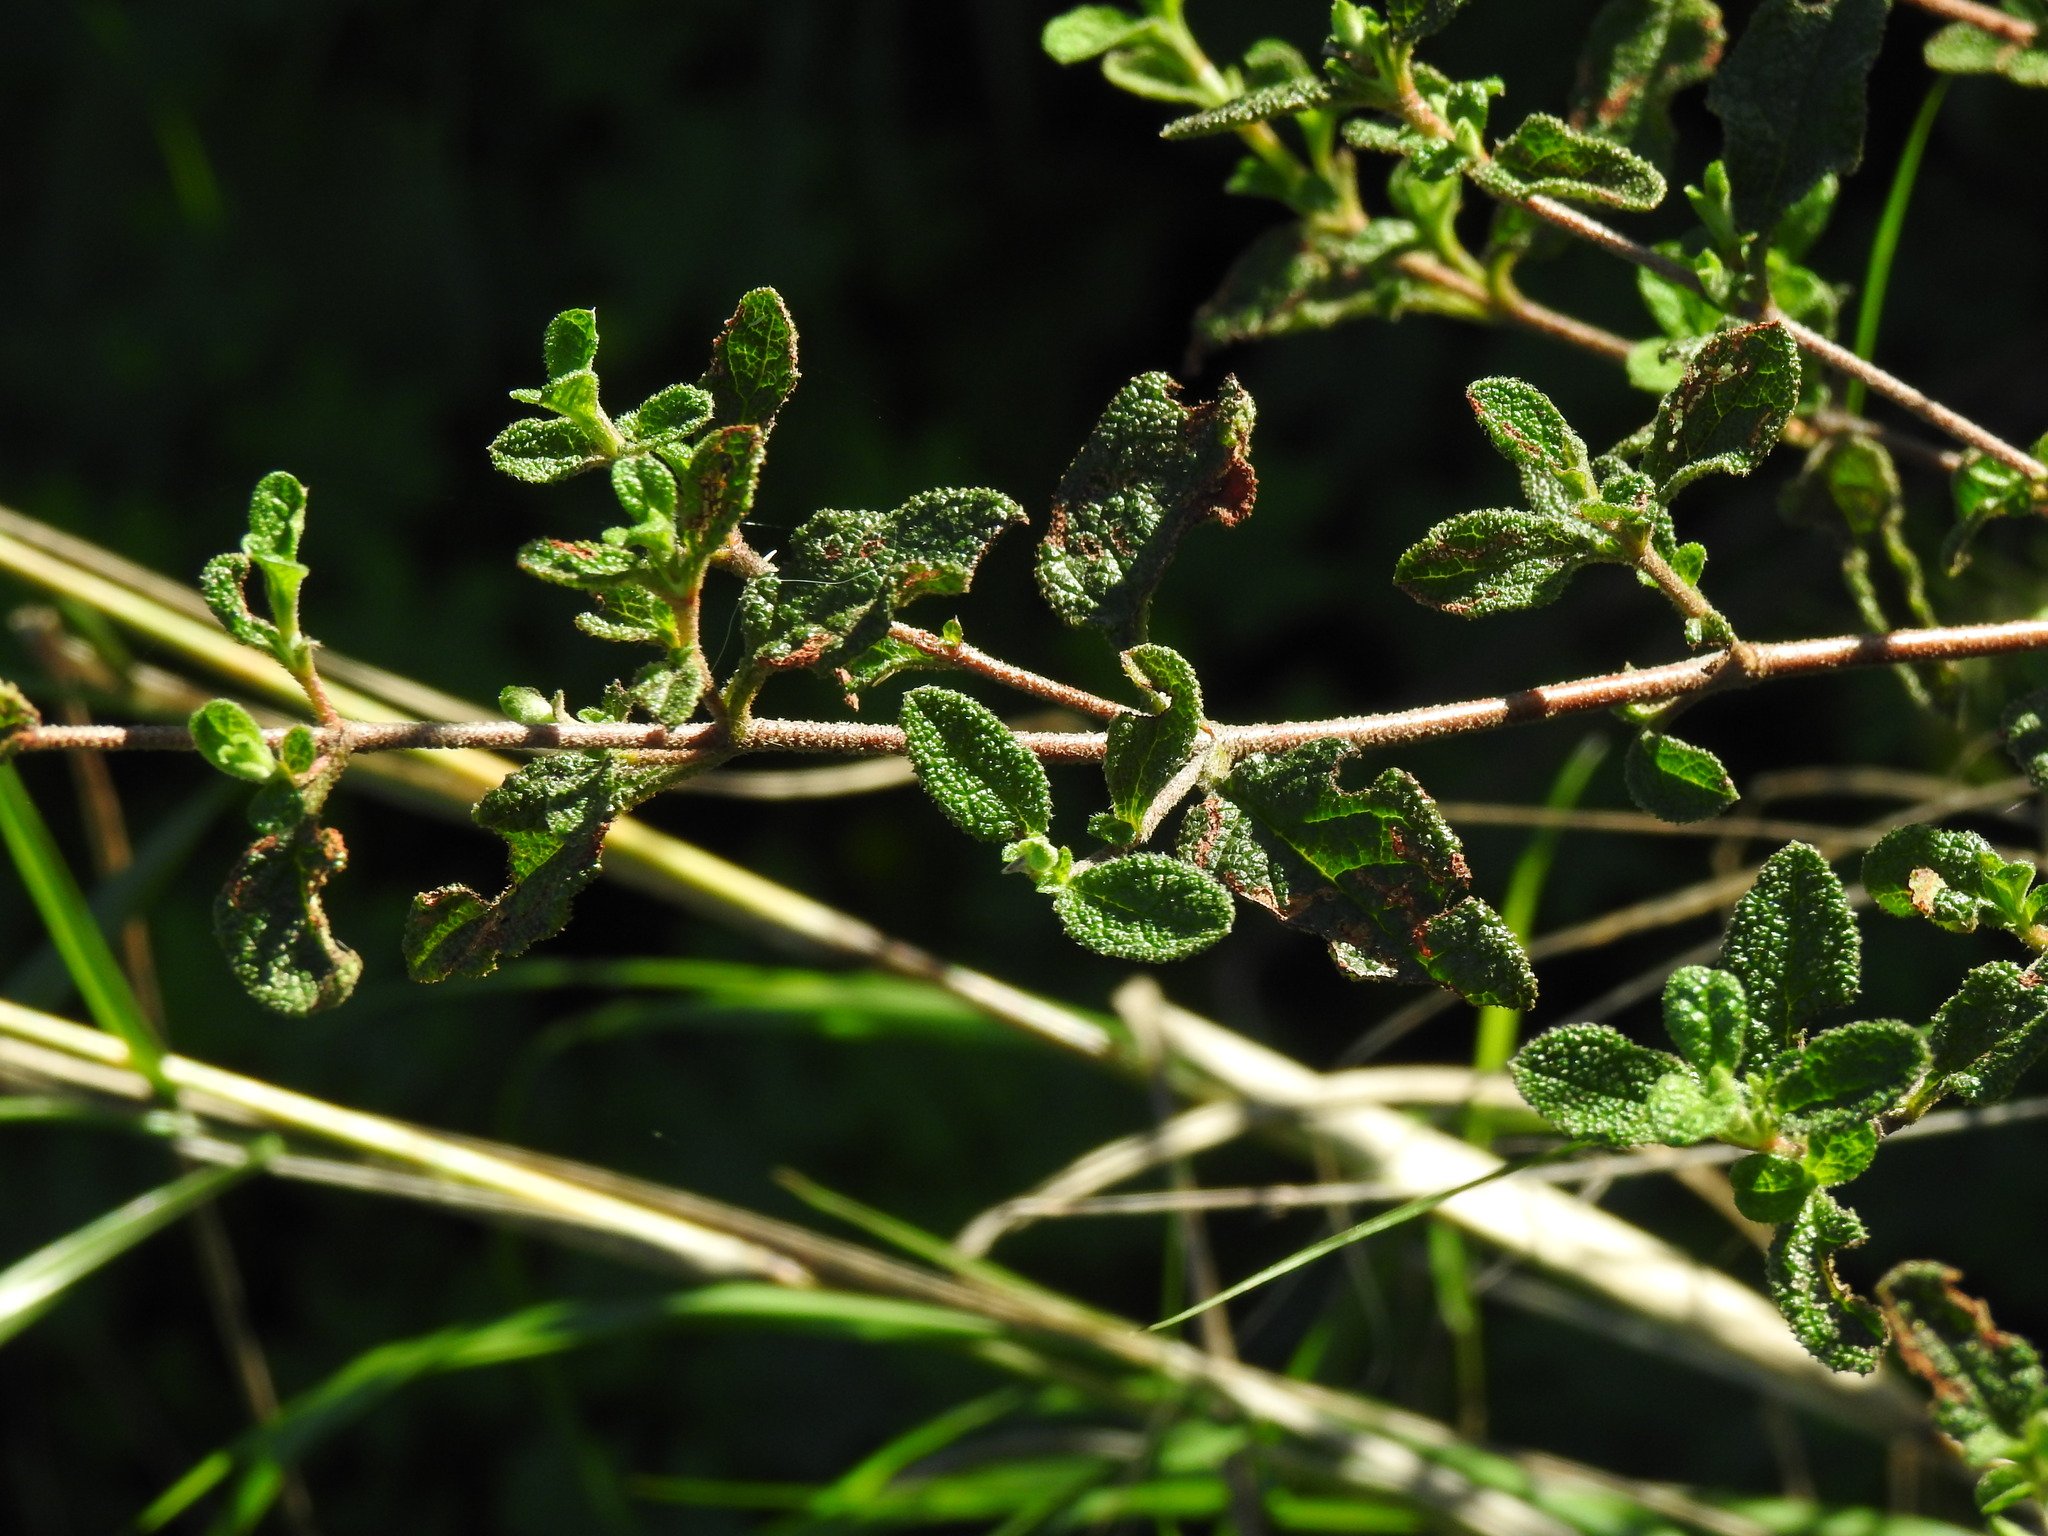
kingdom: Plantae
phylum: Tracheophyta
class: Magnoliopsida
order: Malvales
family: Cistaceae
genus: Cistus
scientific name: Cistus salviifolius
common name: Salvia cistus
